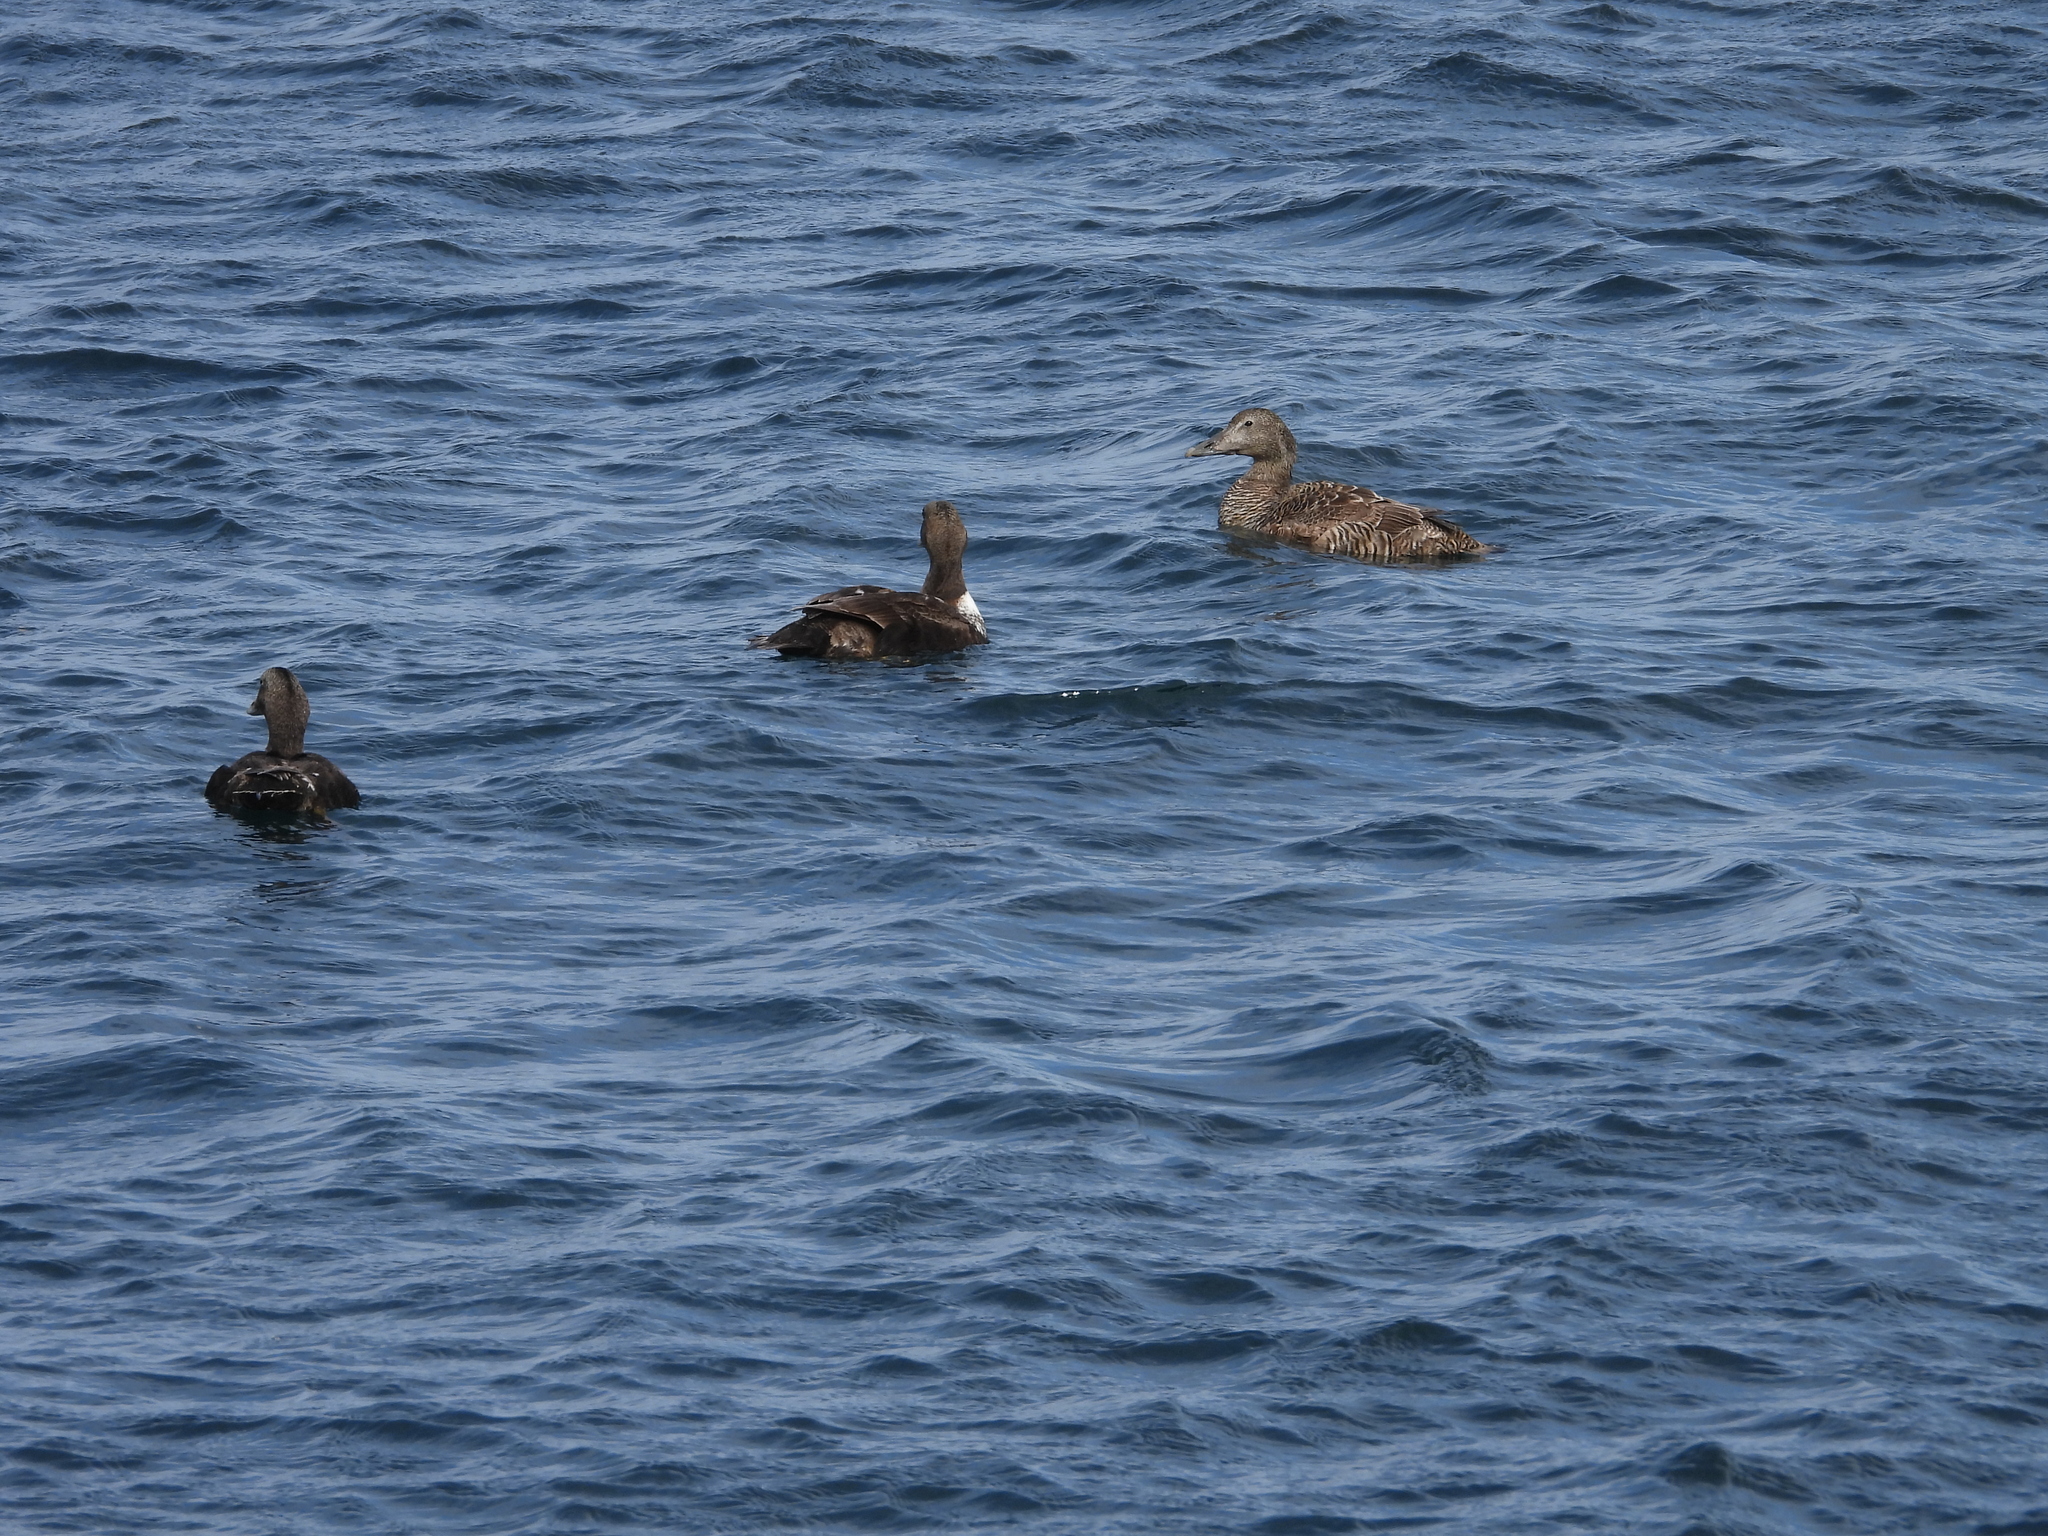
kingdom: Animalia
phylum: Chordata
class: Aves
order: Anseriformes
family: Anatidae
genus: Somateria
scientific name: Somateria mollissima
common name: Common eider
